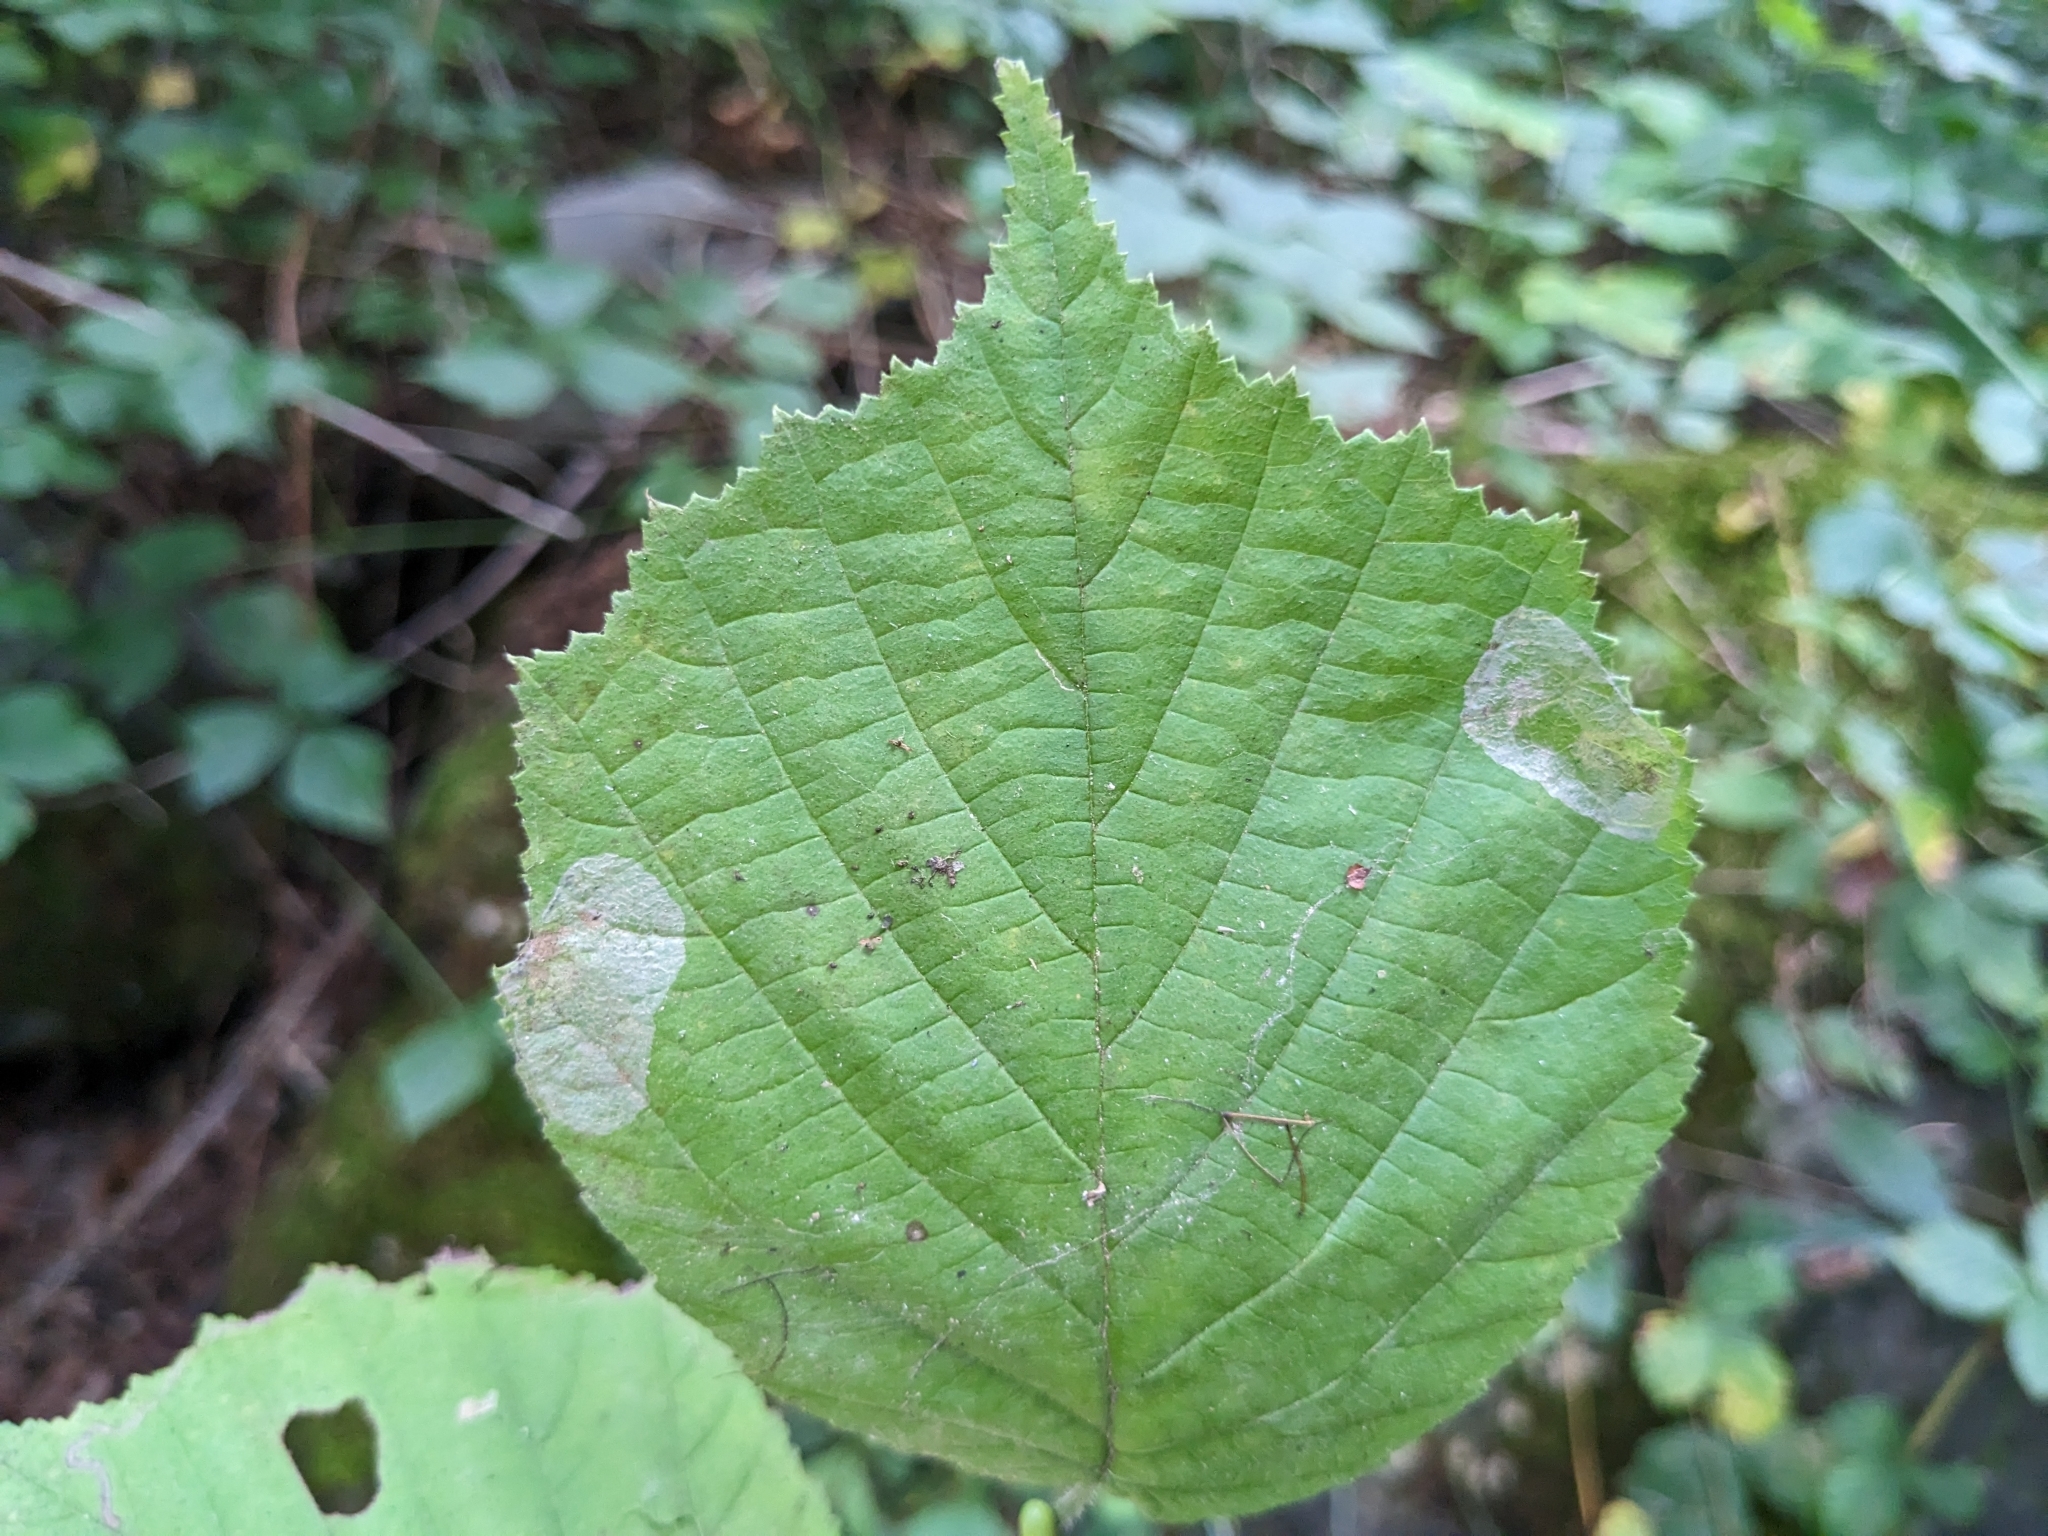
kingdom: Animalia
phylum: Arthropoda
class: Insecta
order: Lepidoptera
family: Gracillariidae
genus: Phyllonorycter
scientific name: Phyllonorycter coryli
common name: Nut-leaf blister moth
